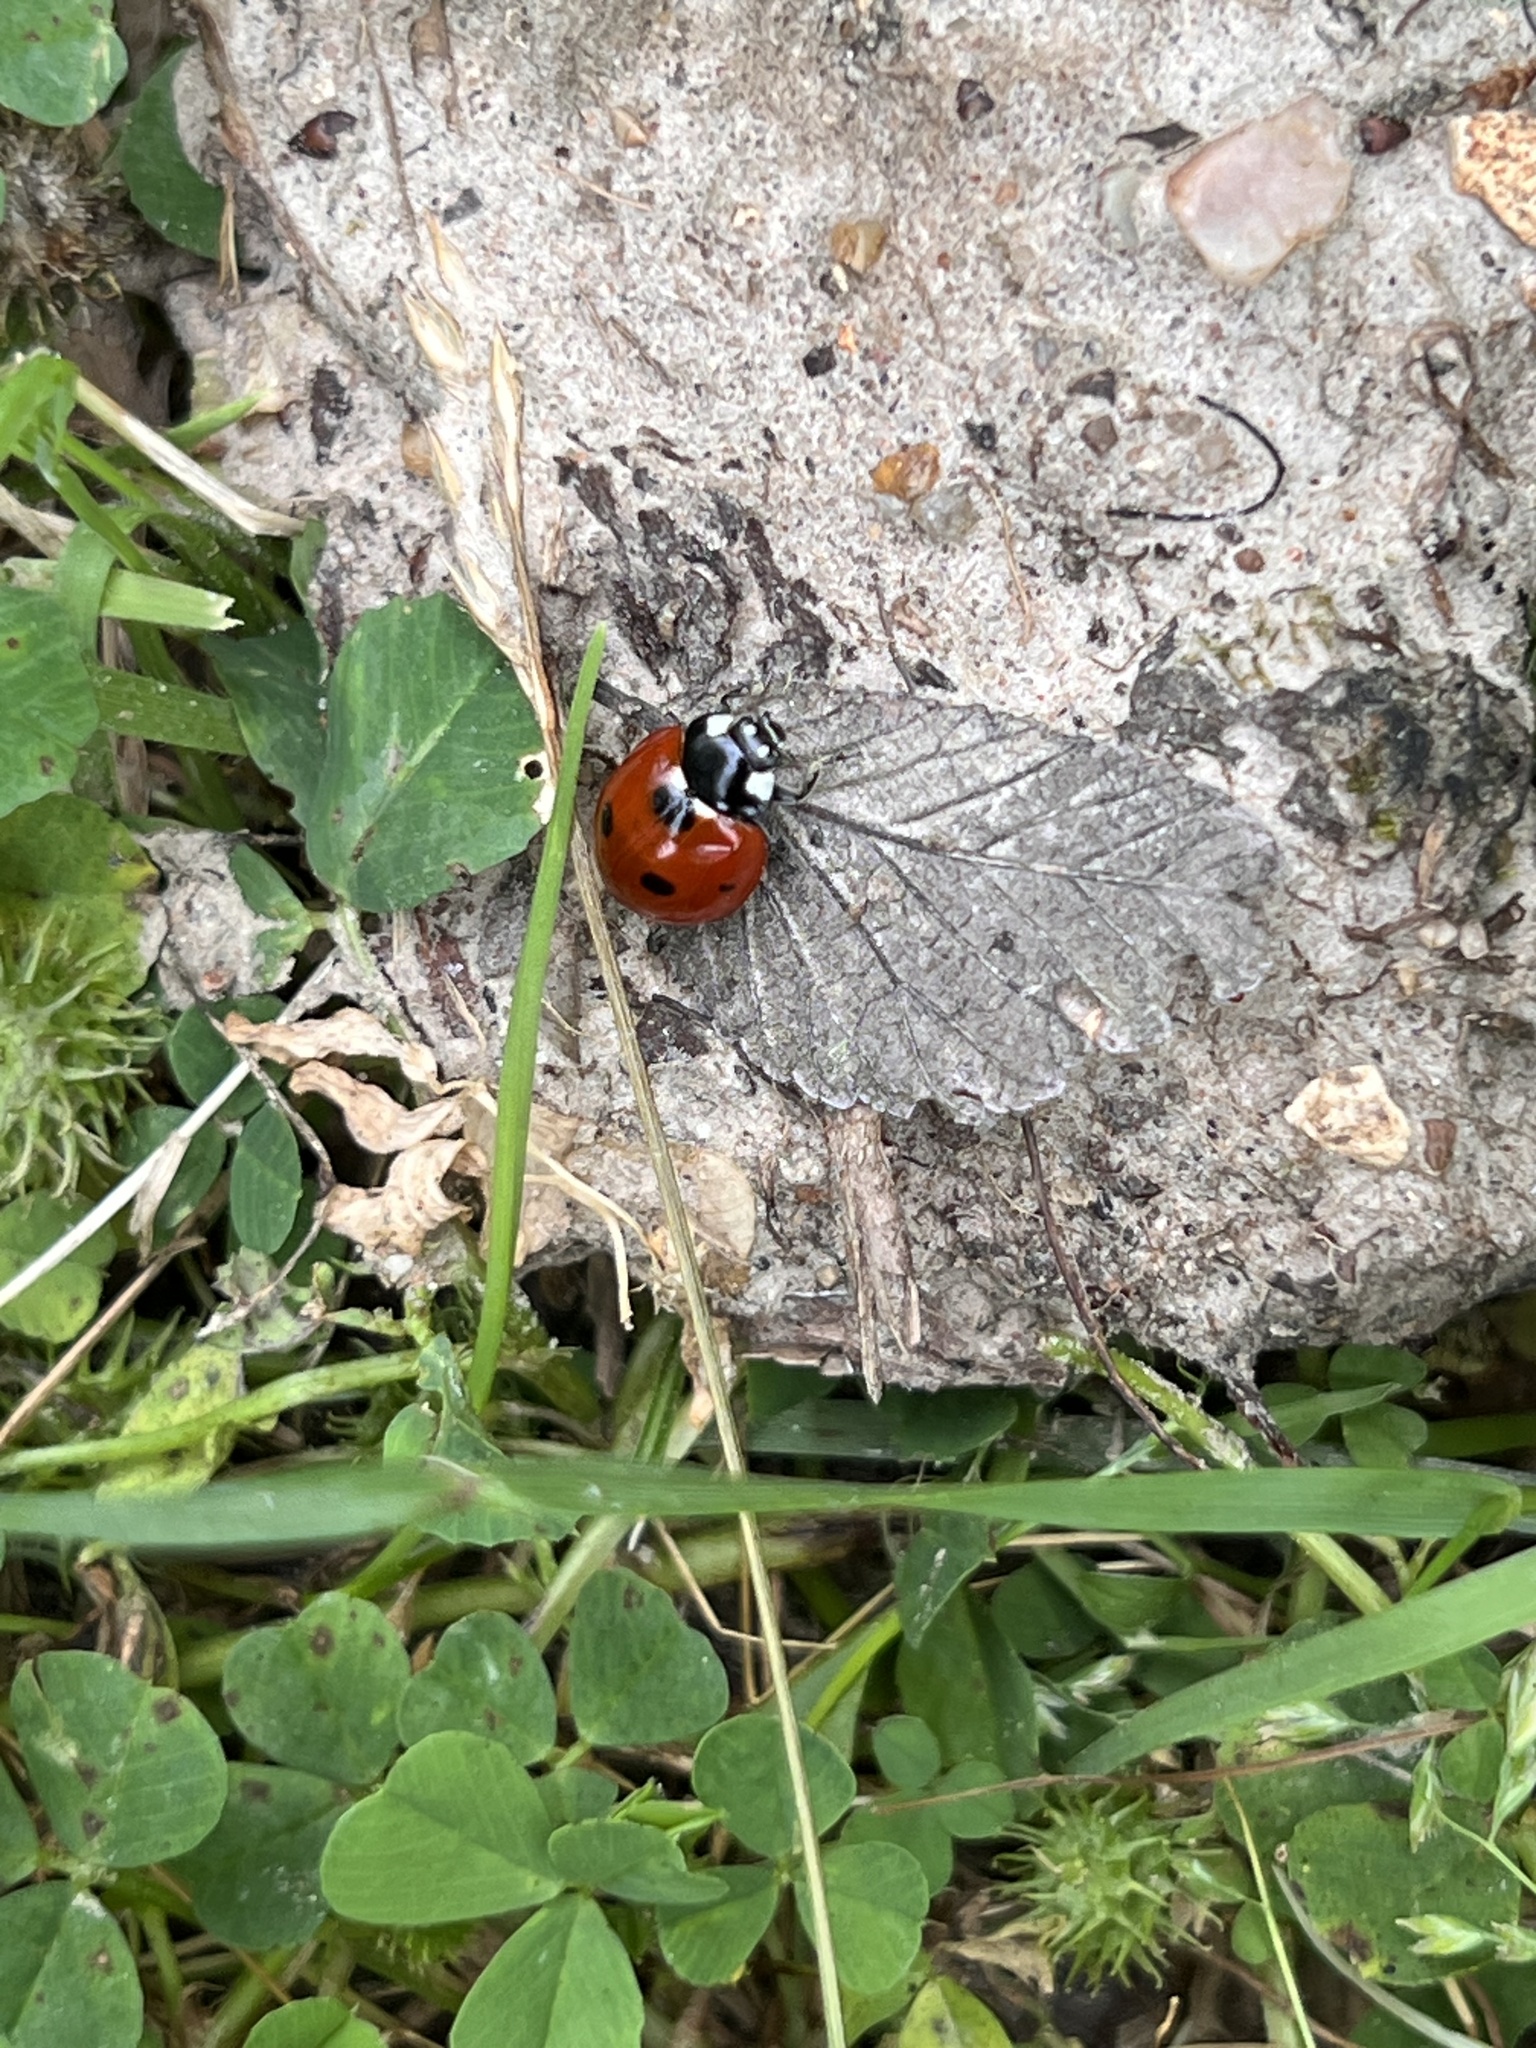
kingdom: Animalia
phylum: Arthropoda
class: Insecta
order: Coleoptera
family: Coccinellidae
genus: Coccinella
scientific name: Coccinella septempunctata
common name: Sevenspotted lady beetle
